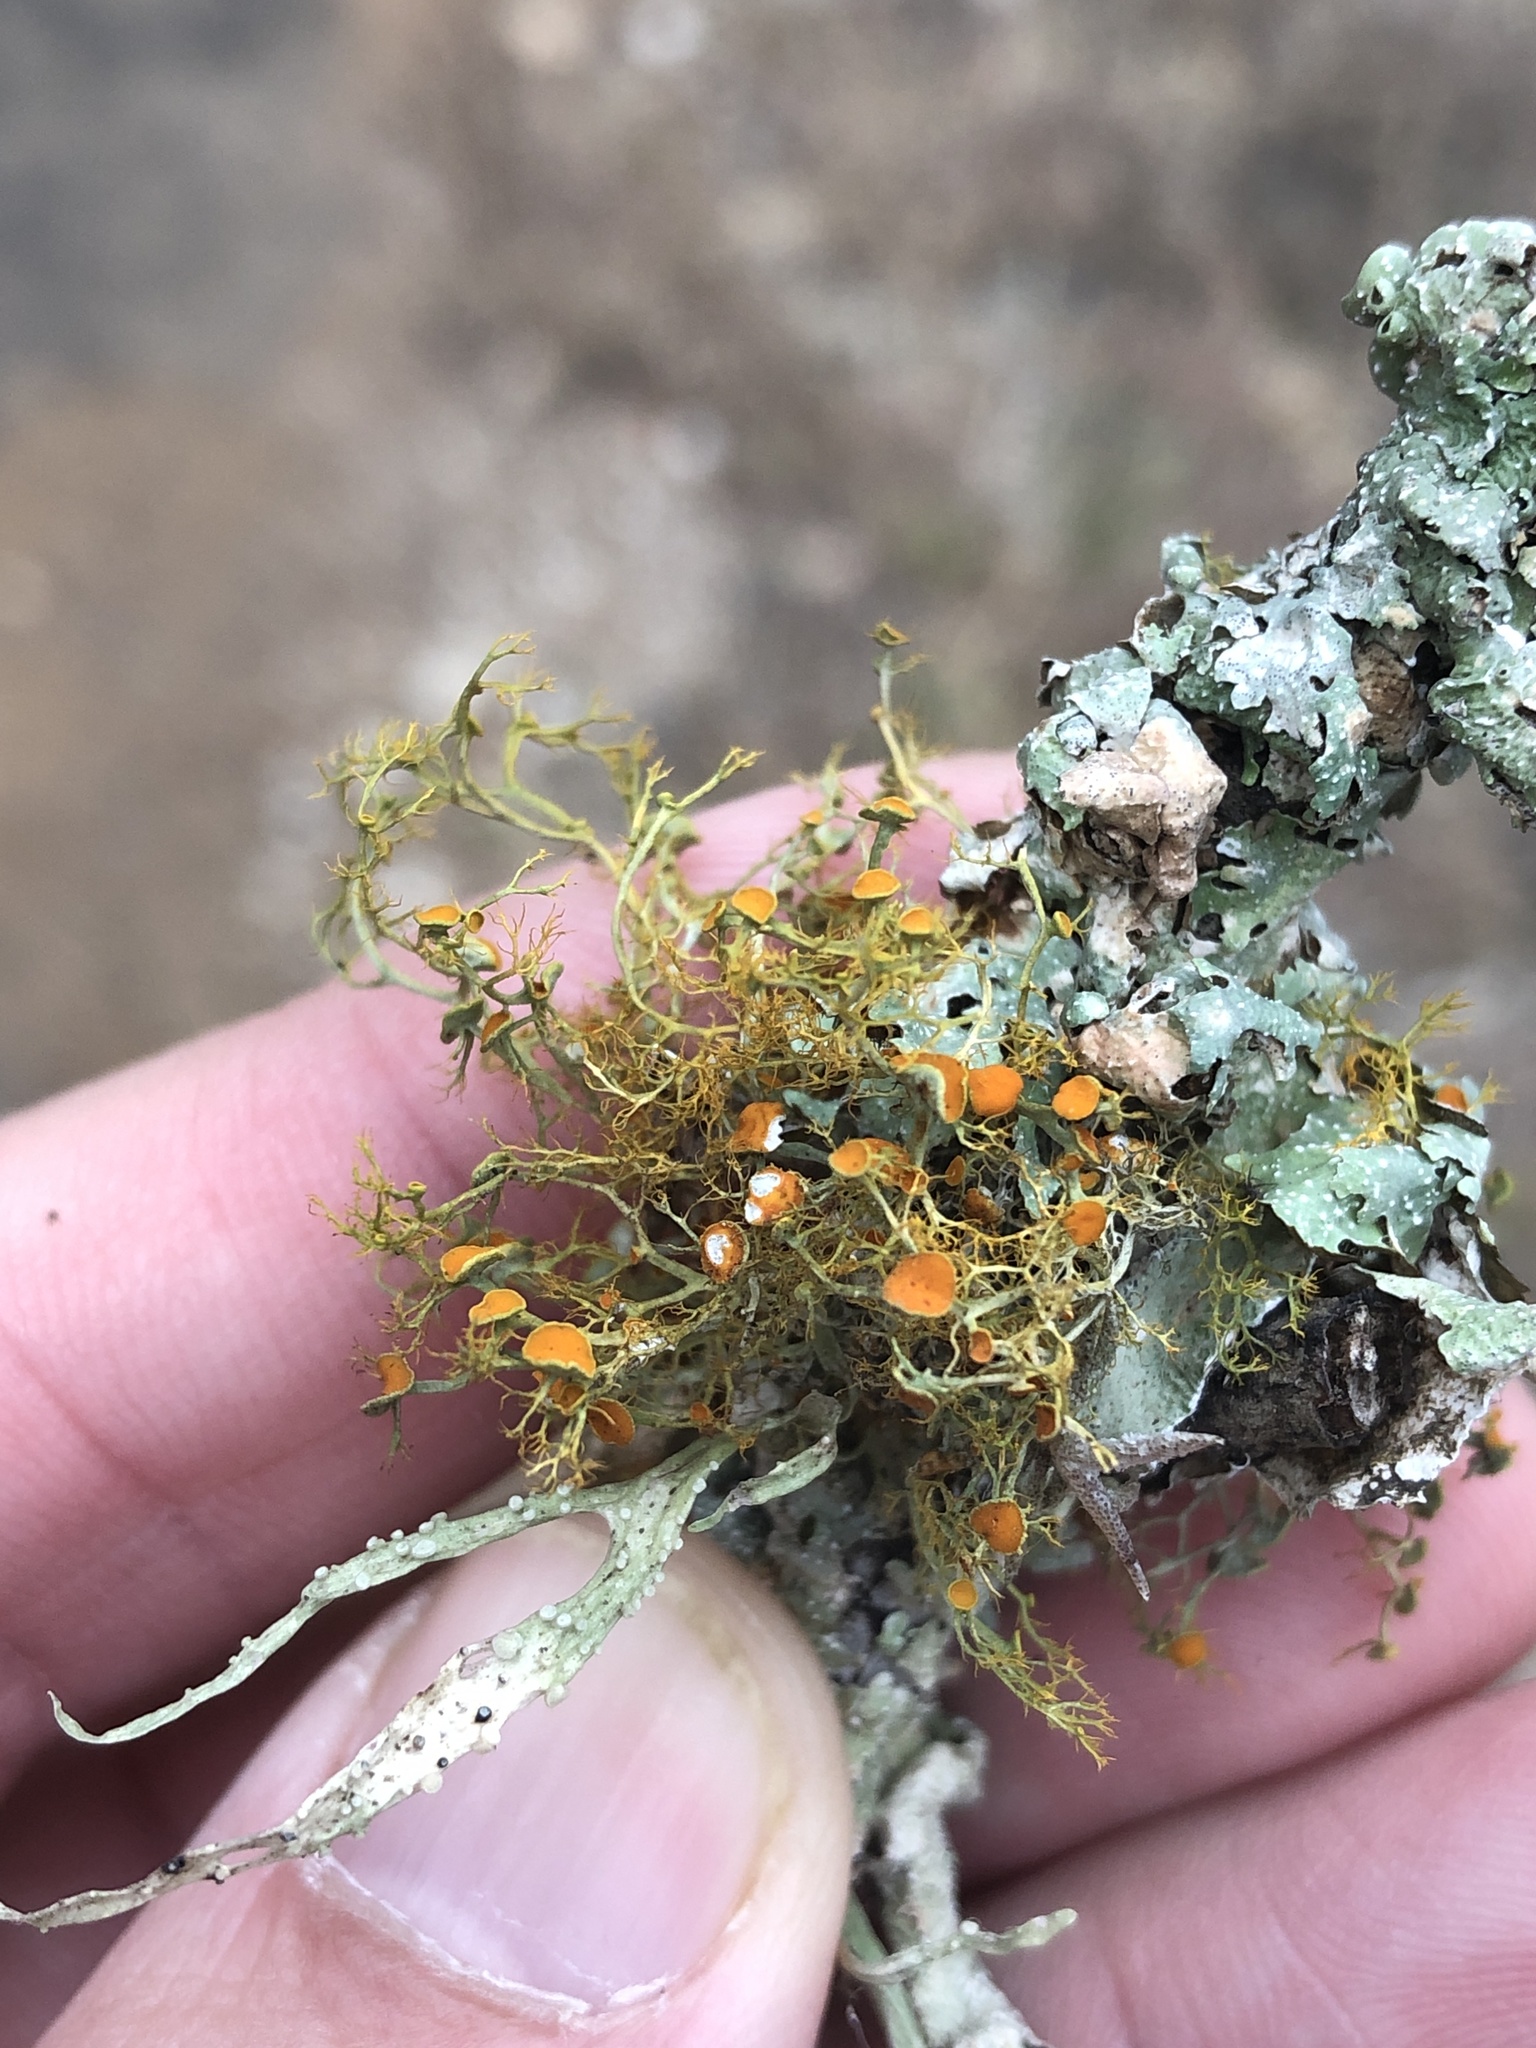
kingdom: Fungi
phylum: Ascomycota
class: Lecanoromycetes
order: Teloschistales
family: Teloschistaceae
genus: Teloschistes
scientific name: Teloschistes exilis
